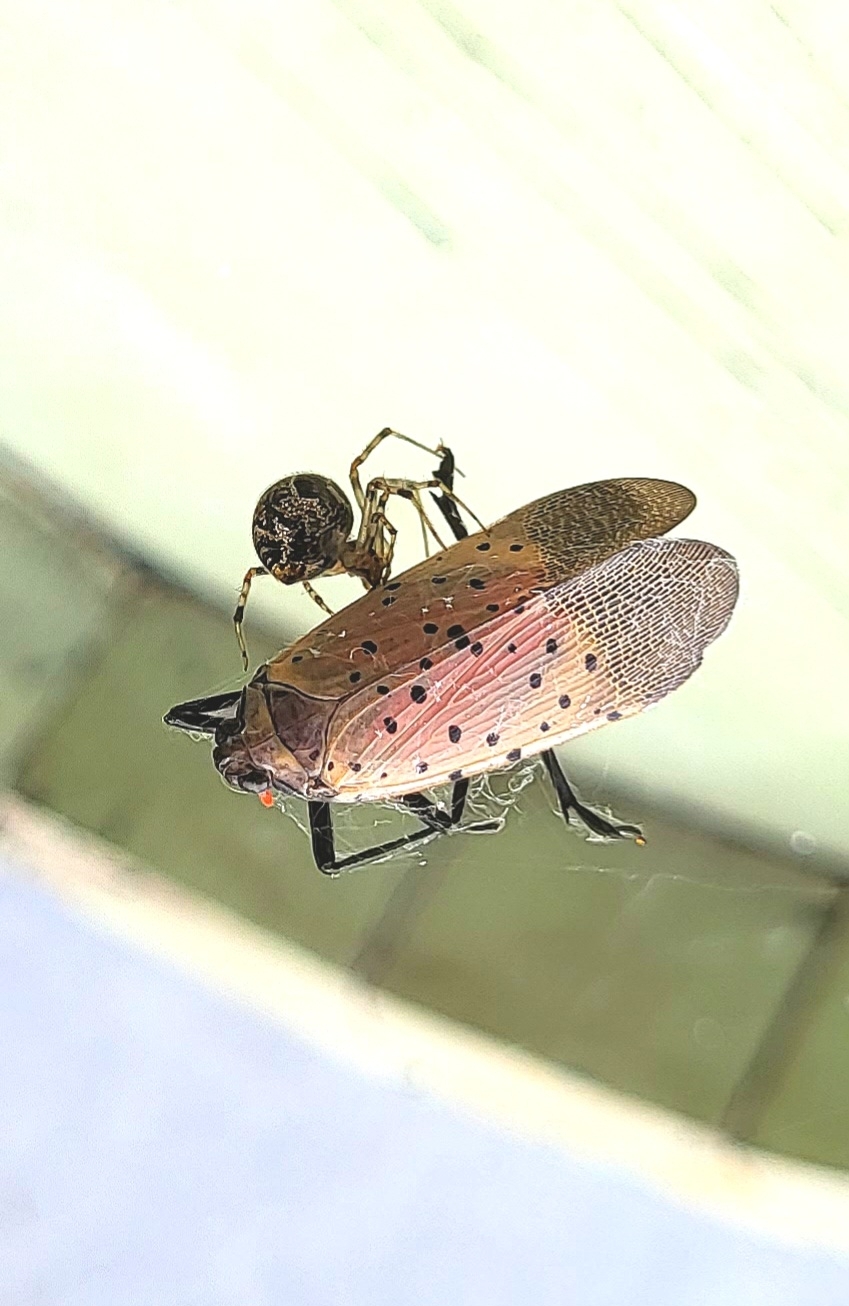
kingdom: Animalia
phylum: Arthropoda
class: Insecta
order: Hemiptera
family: Fulgoridae
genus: Lycorma
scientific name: Lycorma delicatula
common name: Spotted lanternfly
